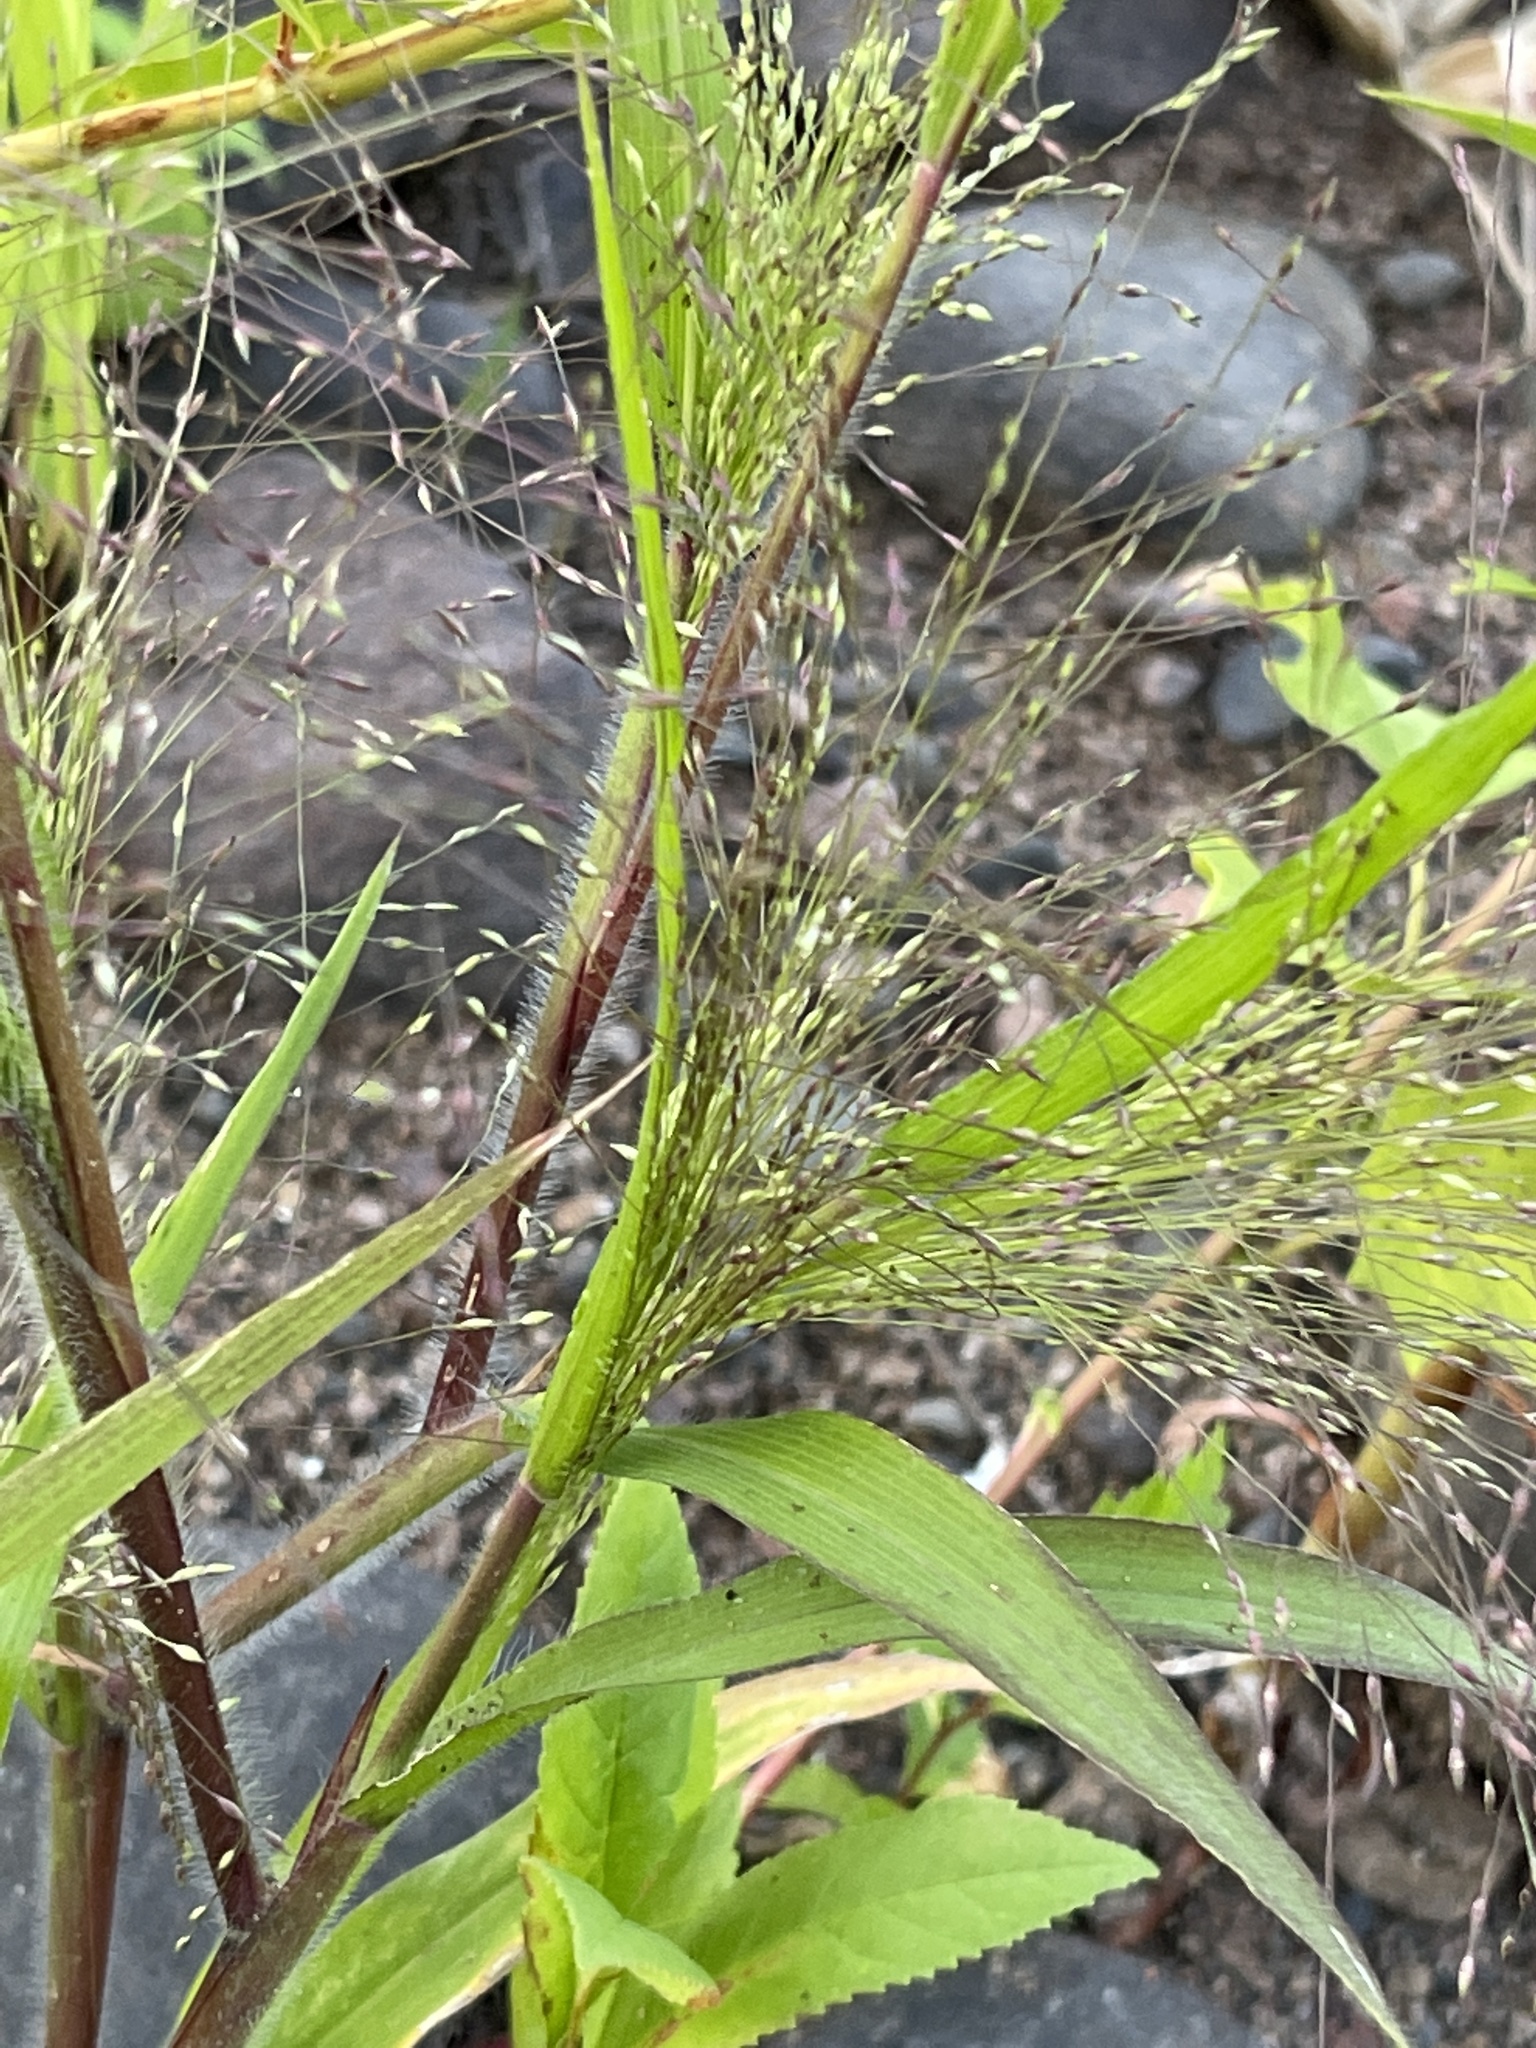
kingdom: Plantae
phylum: Tracheophyta
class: Liliopsida
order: Poales
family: Poaceae
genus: Panicum
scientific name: Panicum capillare
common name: Witch-grass
